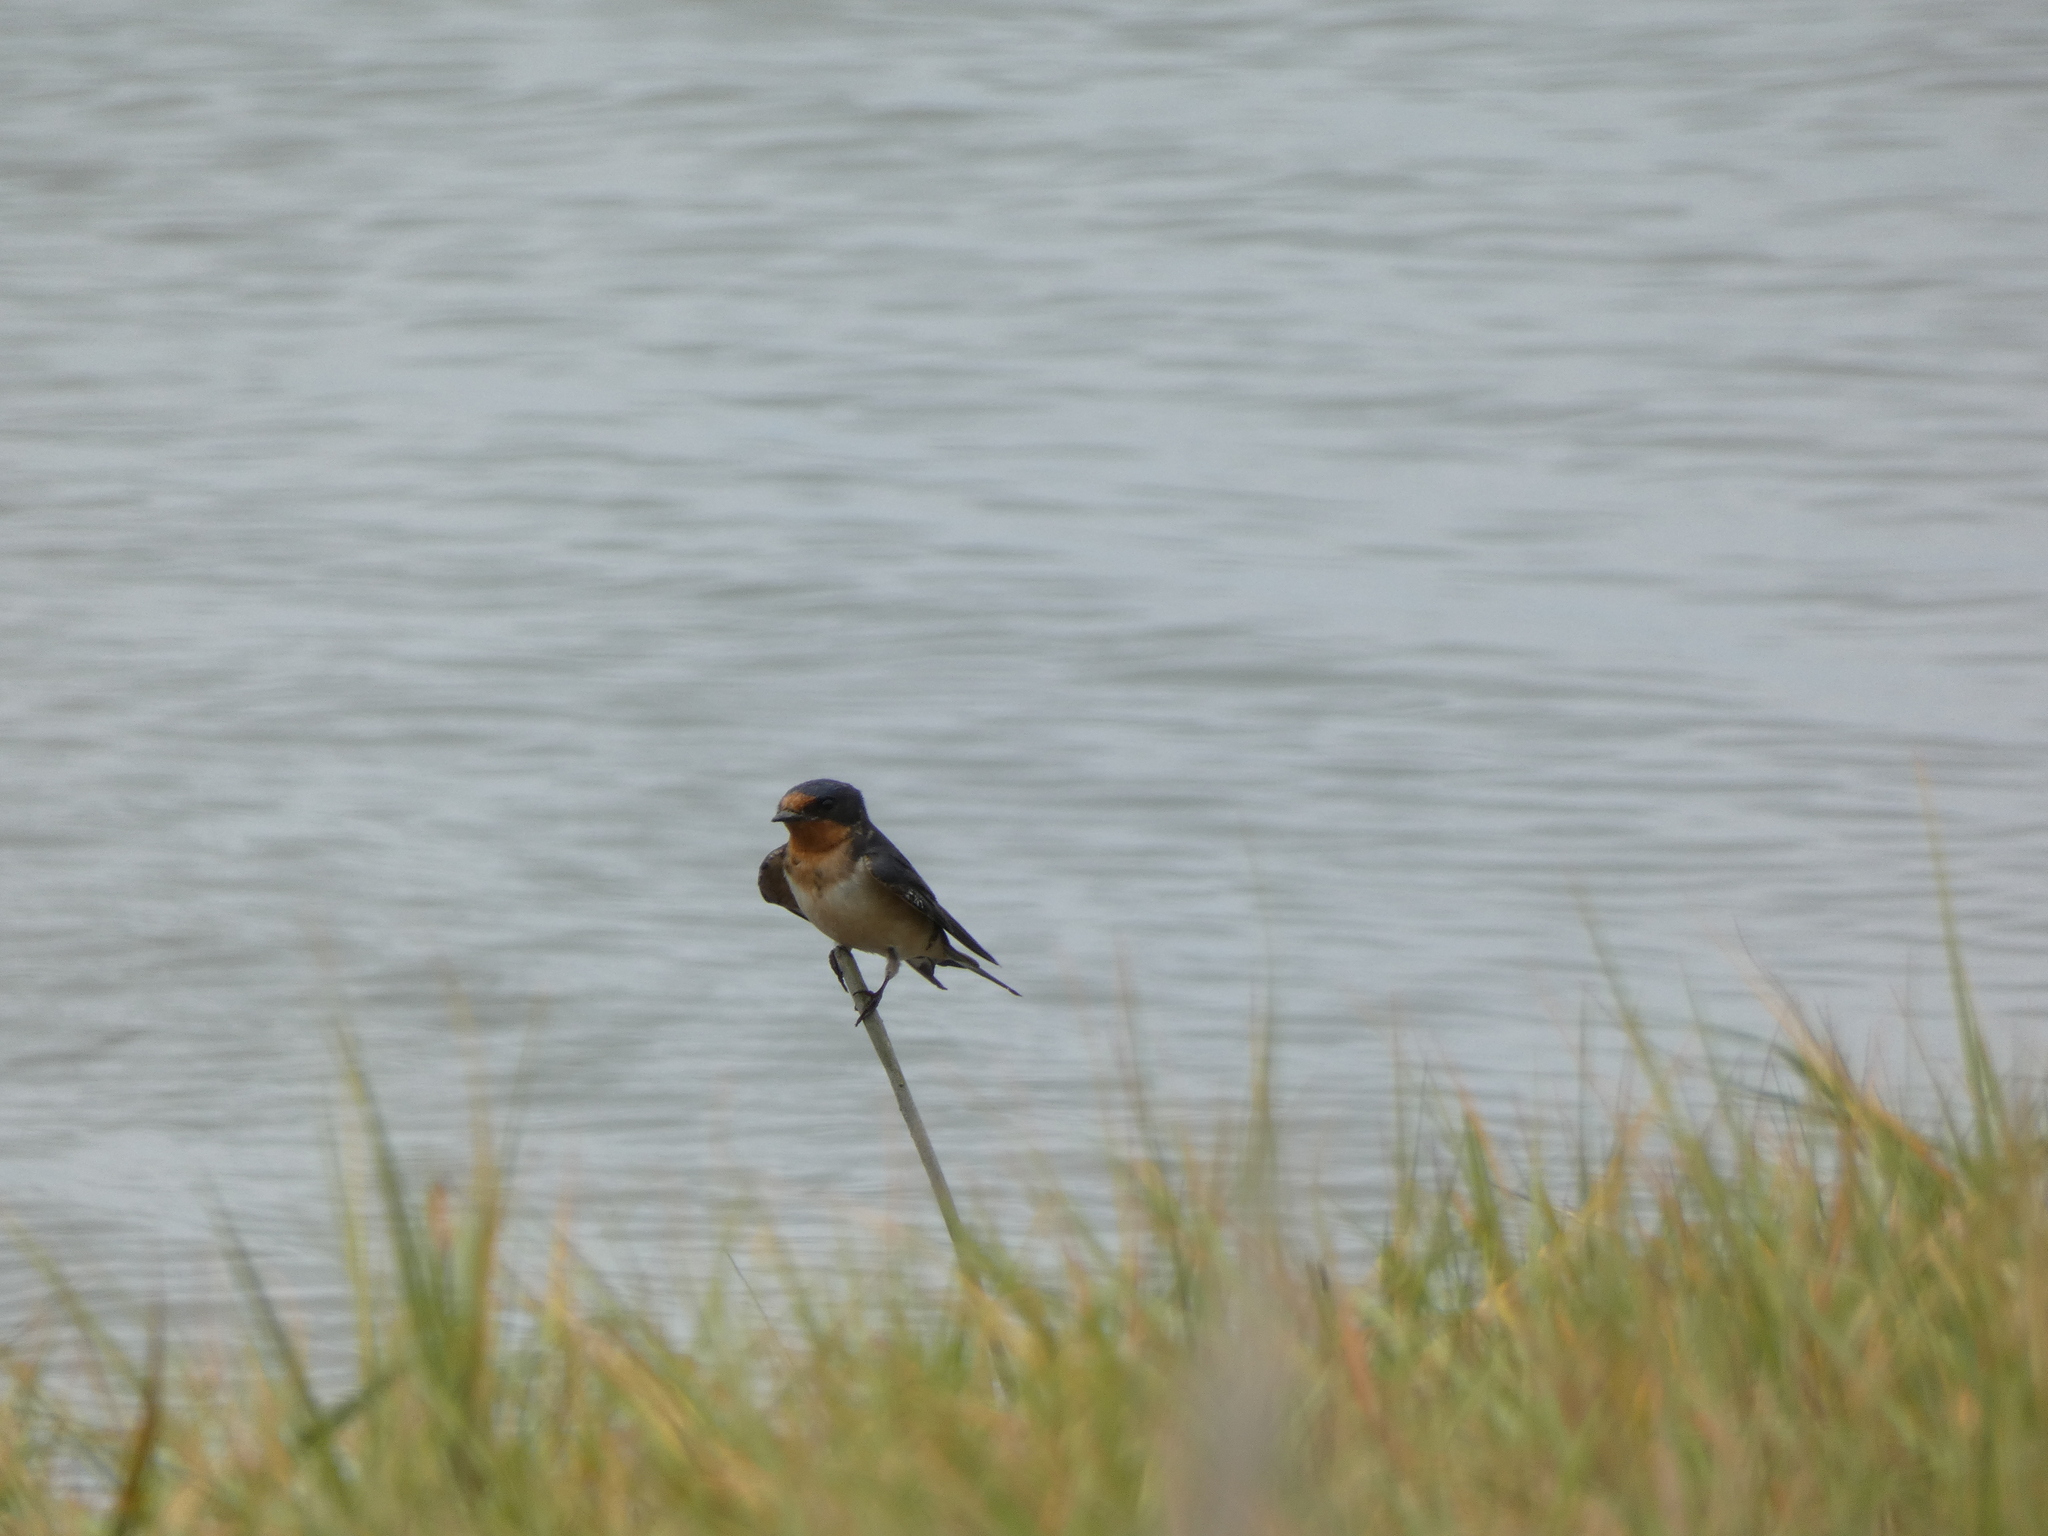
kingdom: Animalia
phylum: Chordata
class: Aves
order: Passeriformes
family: Hirundinidae
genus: Hirundo
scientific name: Hirundo rustica
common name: Barn swallow
